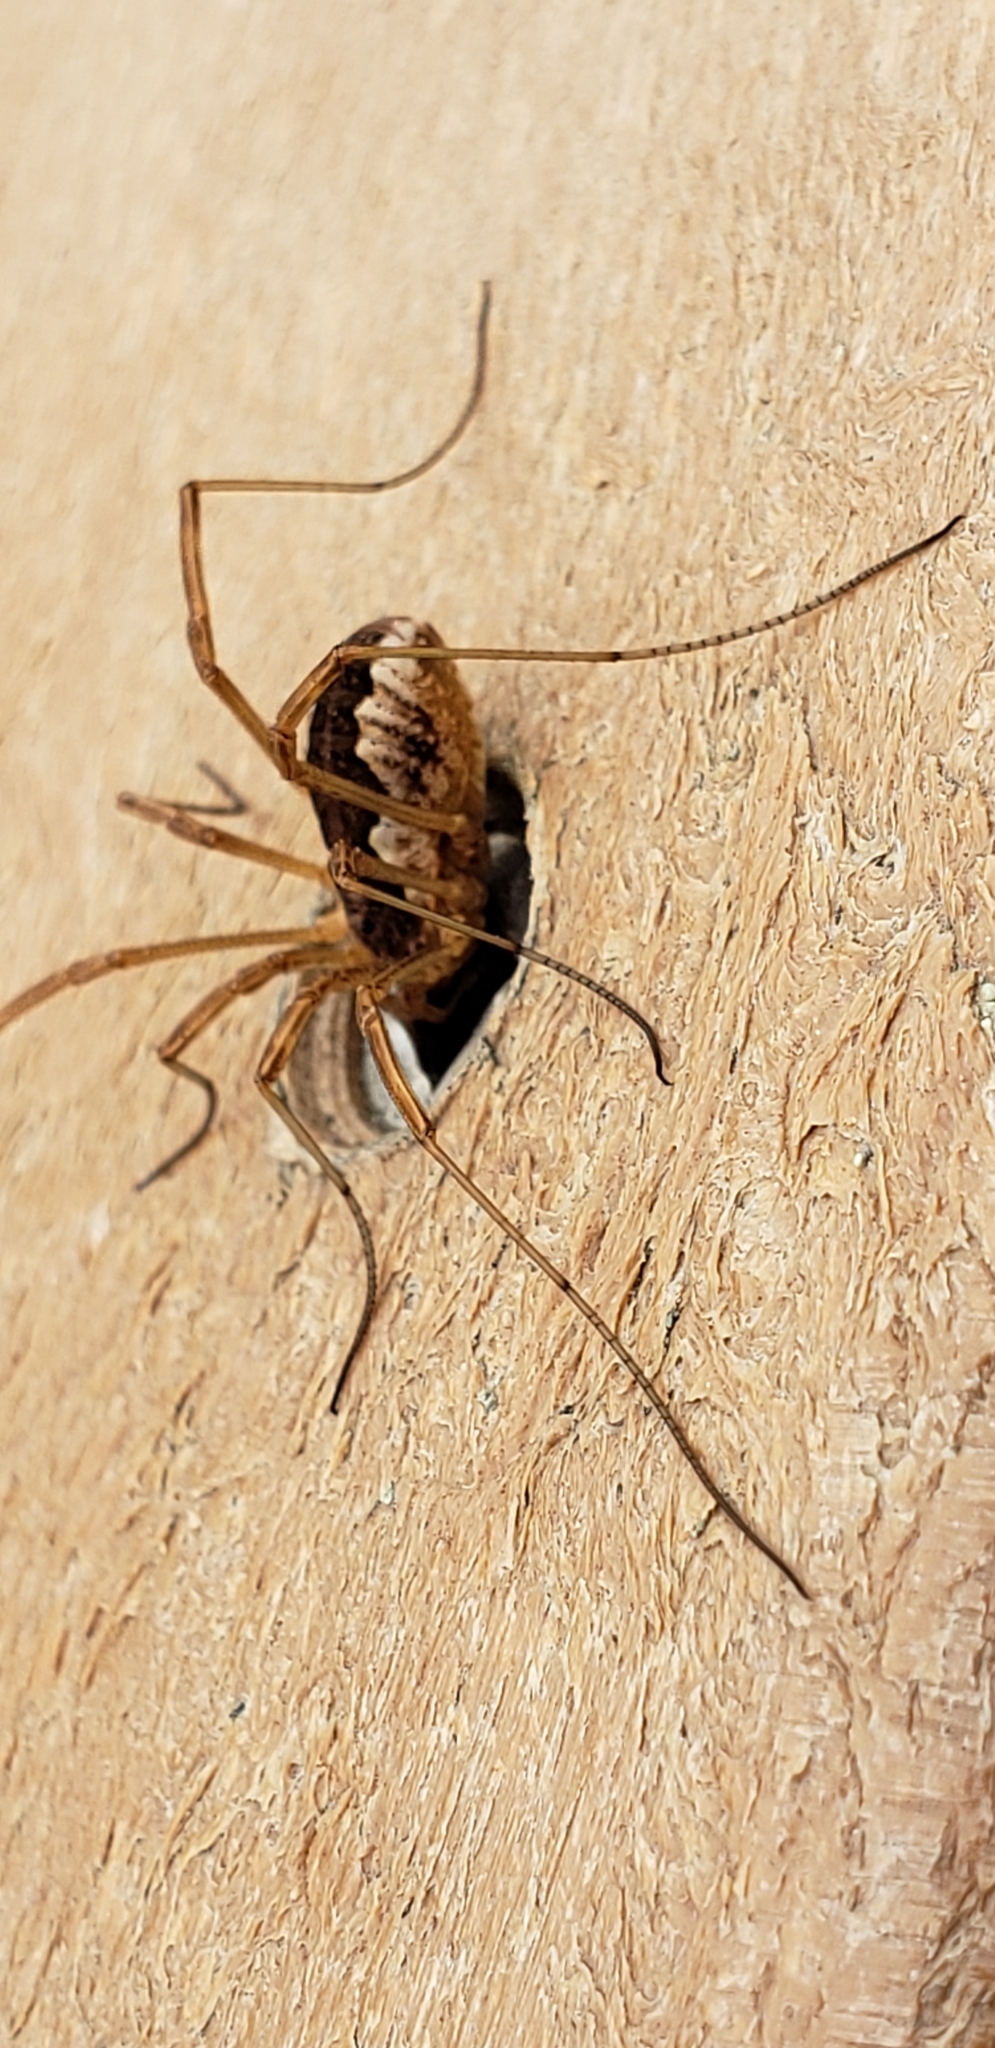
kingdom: Animalia
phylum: Arthropoda
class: Arachnida
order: Opiliones
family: Phalangiidae
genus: Mitopus
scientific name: Mitopus morio
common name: Saddleback harvestman
